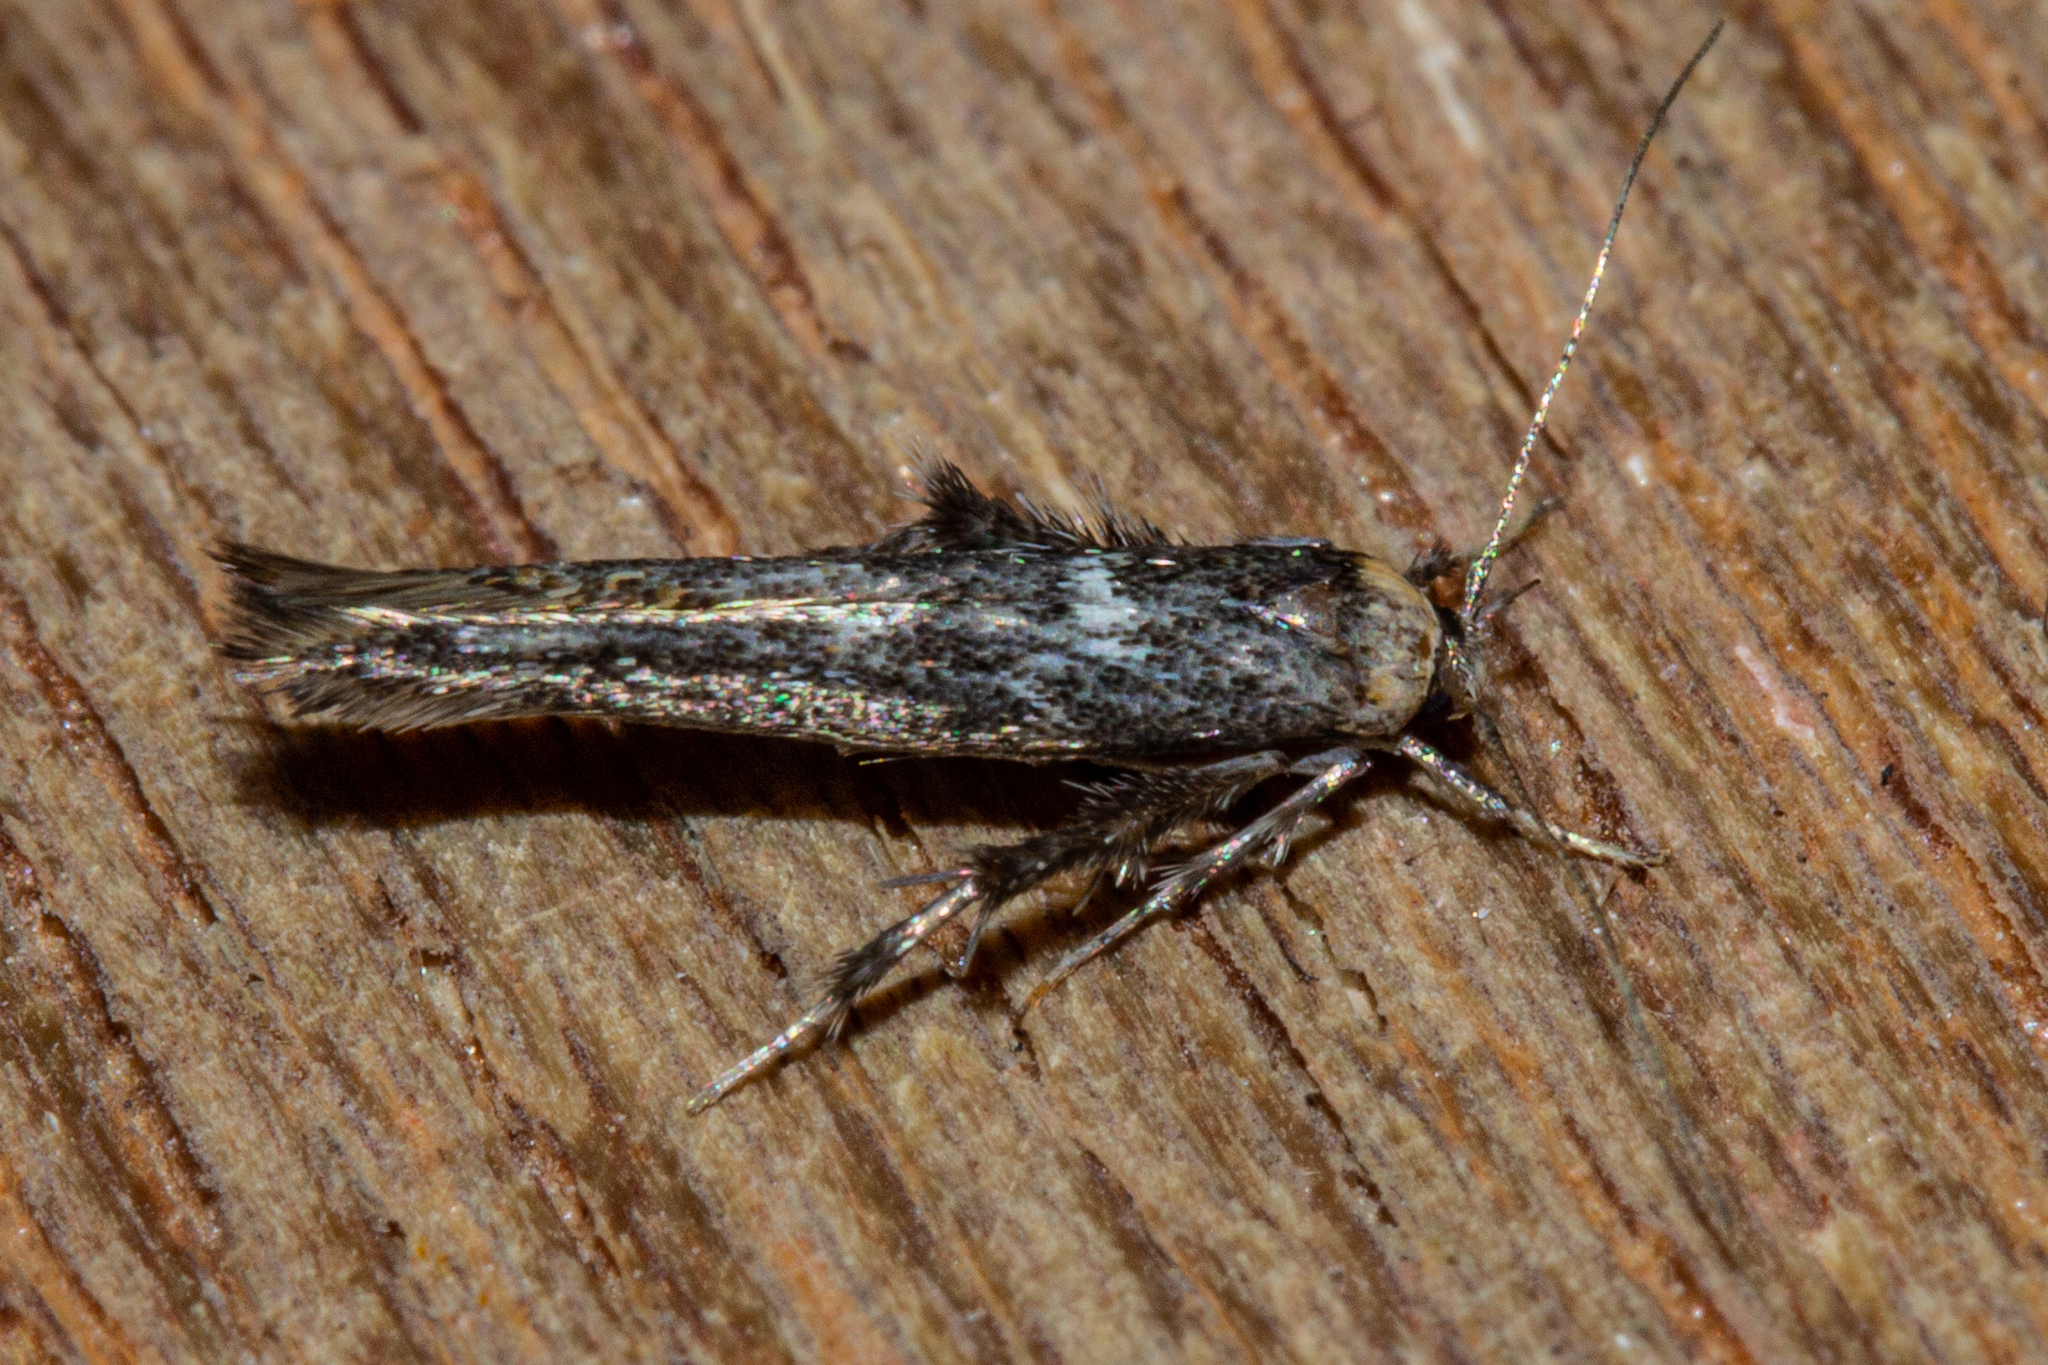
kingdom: Animalia
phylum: Arthropoda
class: Insecta
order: Lepidoptera
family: Stathmopodidae
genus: Stathmopoda
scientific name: Stathmopoda albimaculata
